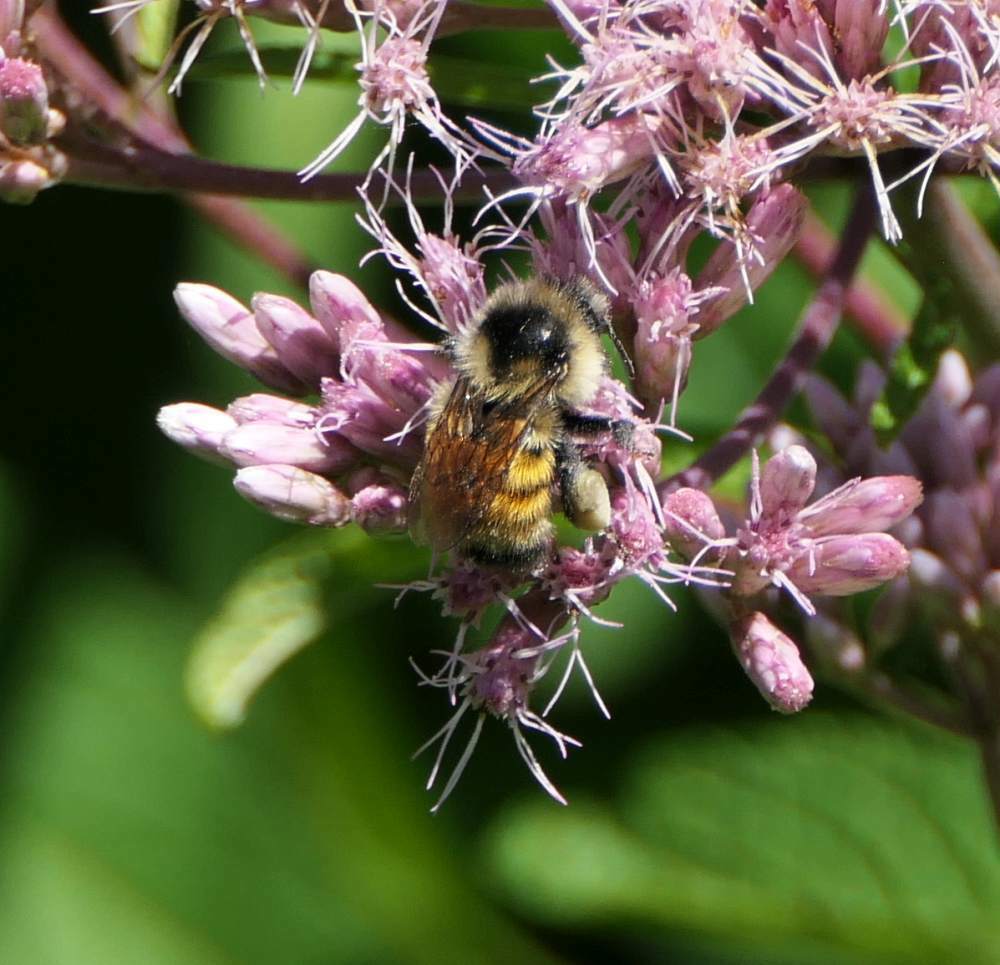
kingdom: Animalia
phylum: Arthropoda
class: Insecta
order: Hymenoptera
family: Apidae
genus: Bombus
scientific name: Bombus ternarius
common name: Tri-colored bumble bee
